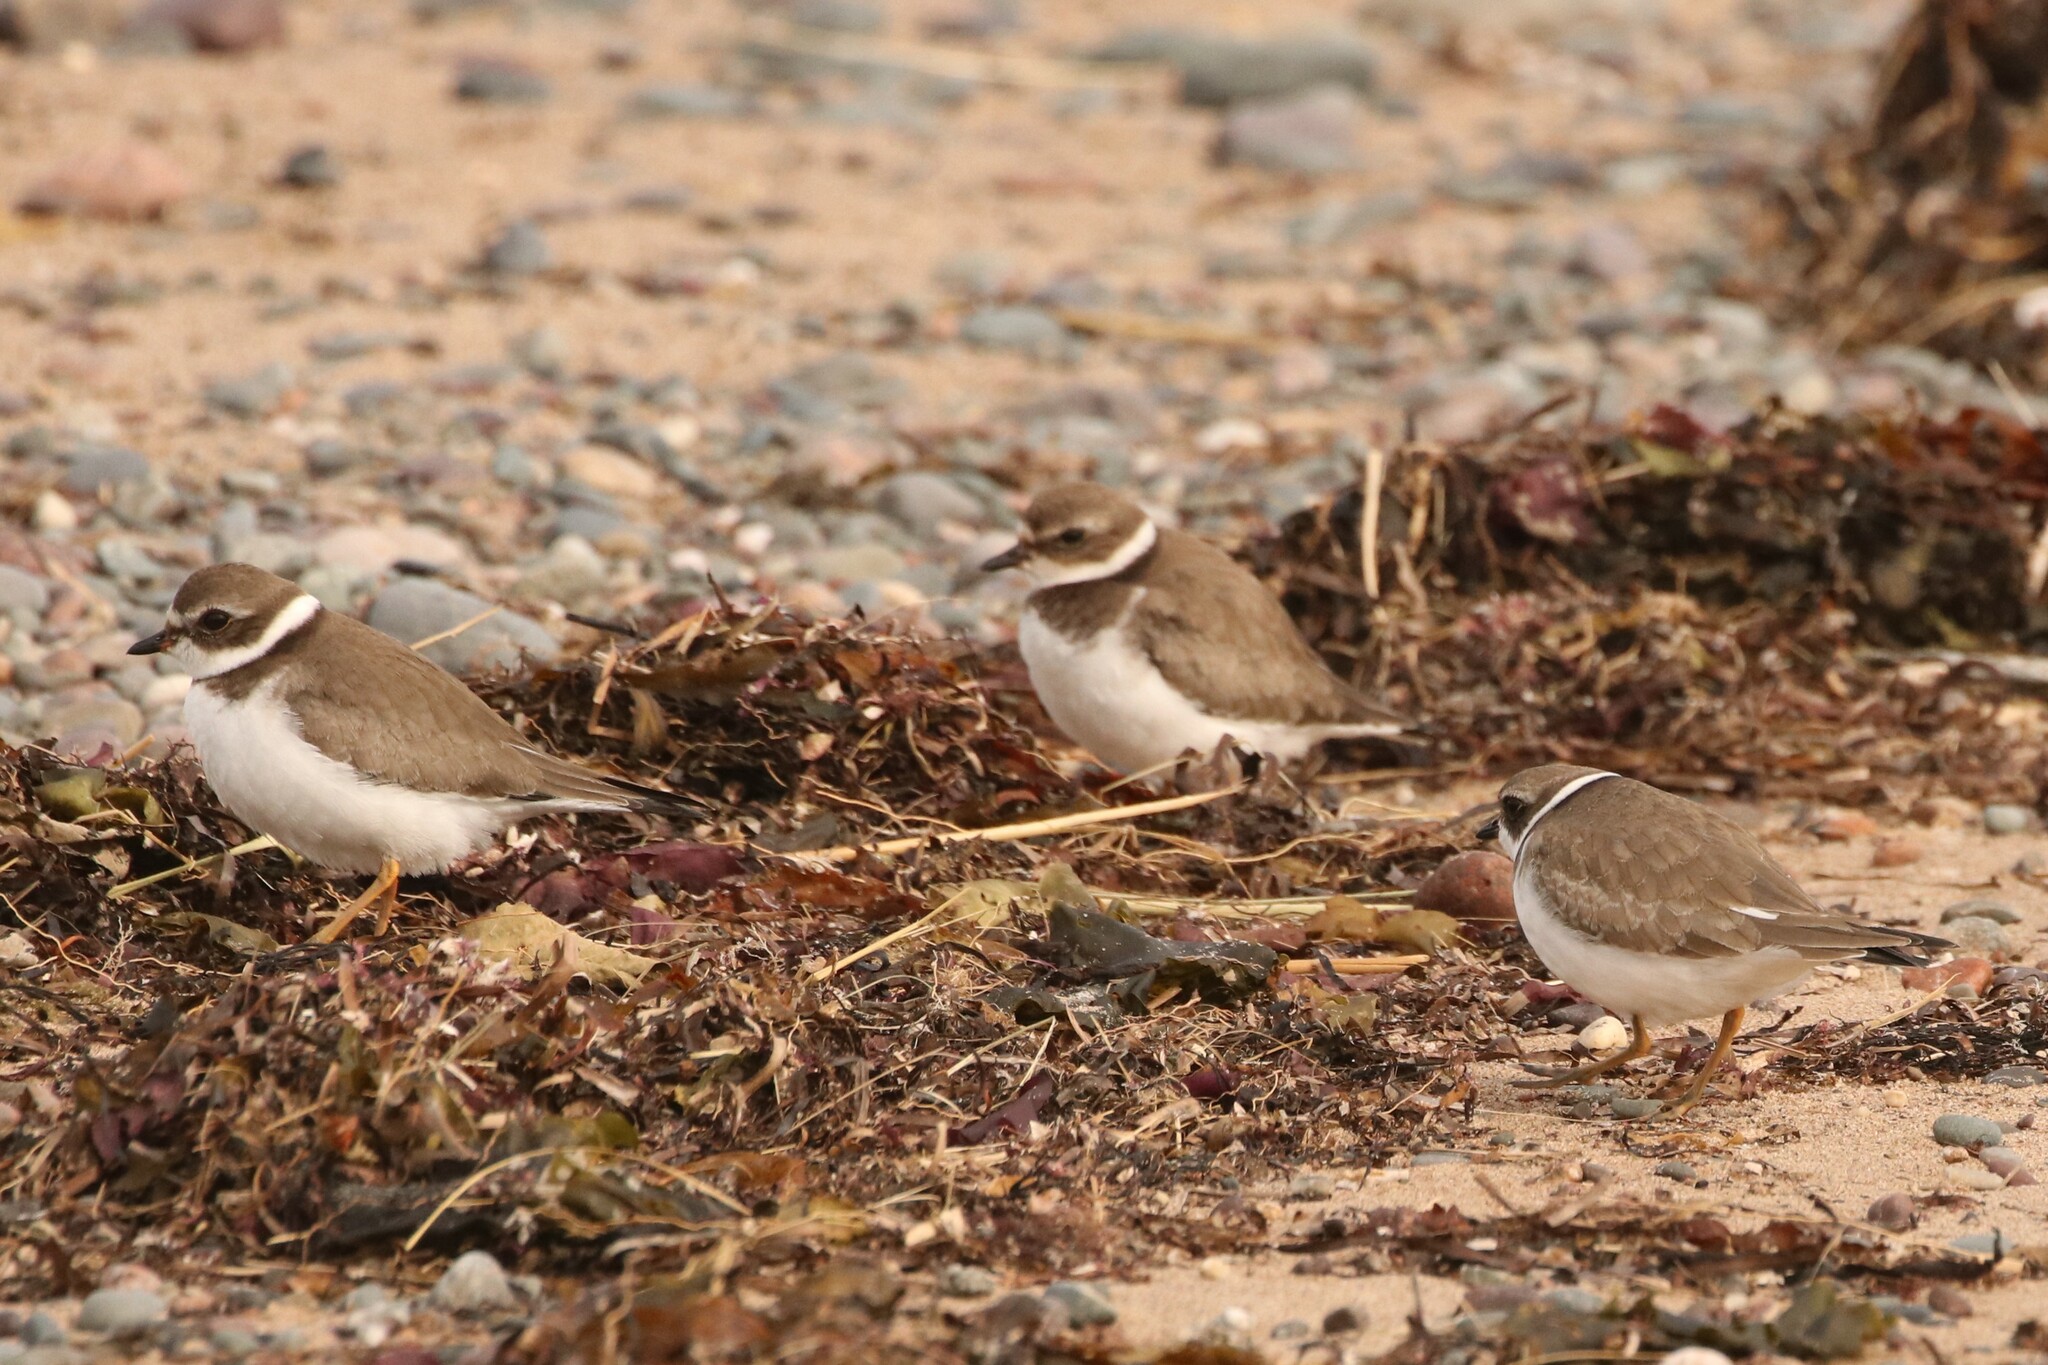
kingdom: Animalia
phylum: Chordata
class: Aves
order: Charadriiformes
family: Charadriidae
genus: Charadrius
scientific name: Charadrius semipalmatus
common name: Semipalmated plover
